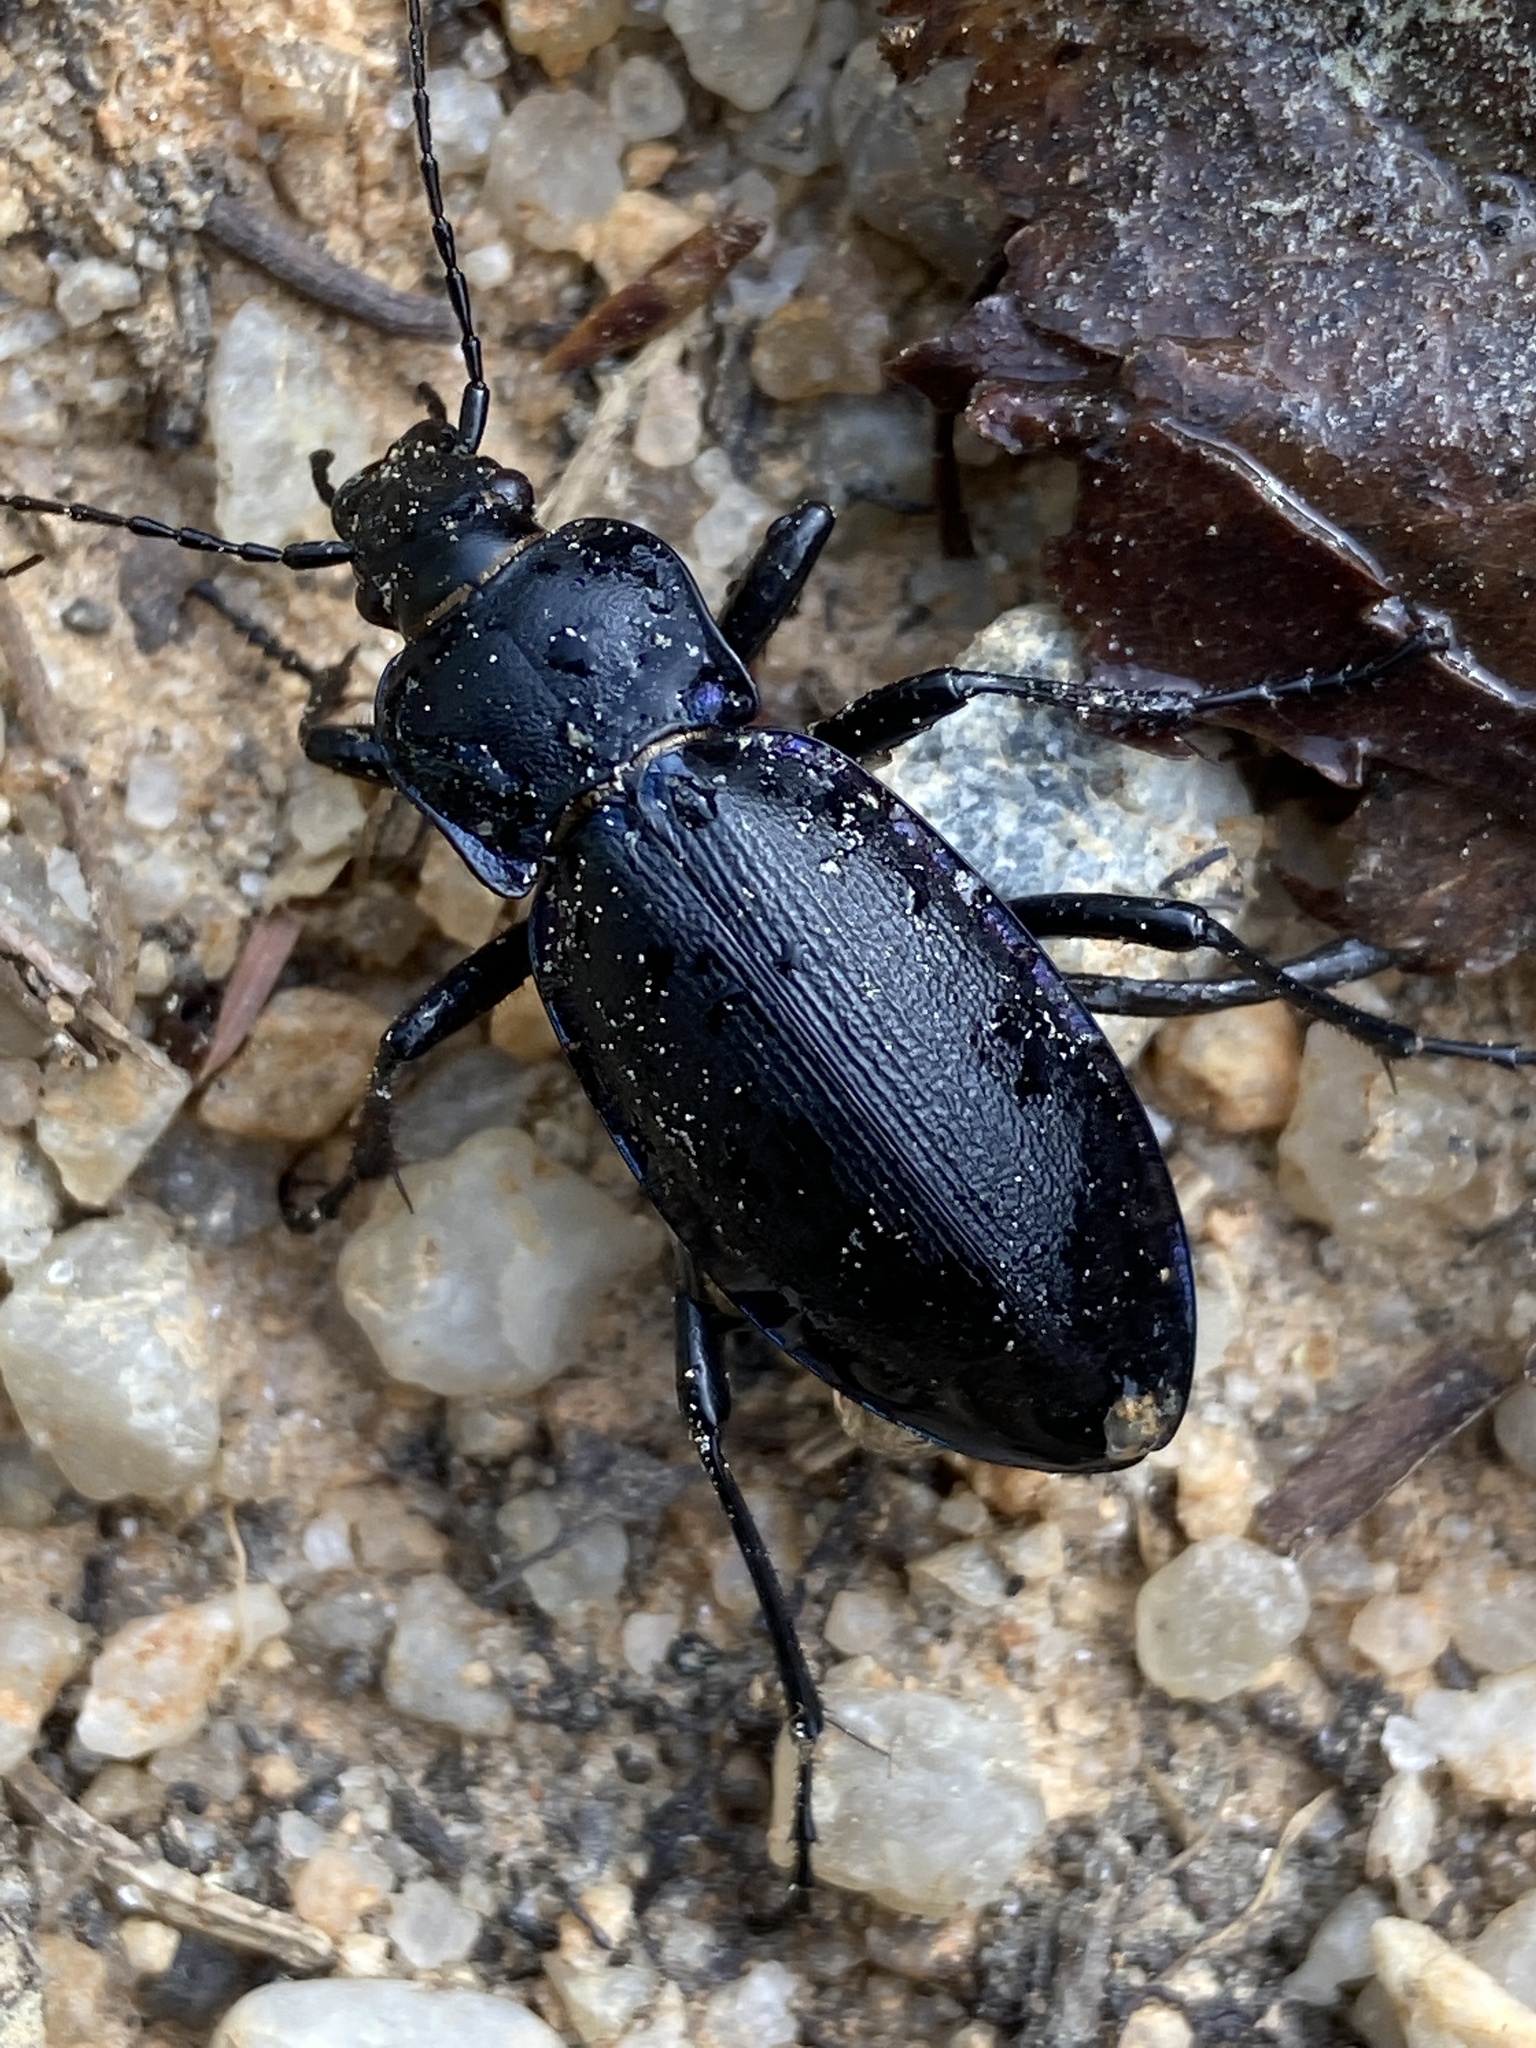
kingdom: Animalia
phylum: Arthropoda
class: Insecta
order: Coleoptera
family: Carabidae
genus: Carabus
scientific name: Carabus violaceus
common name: Violet ground beetle
